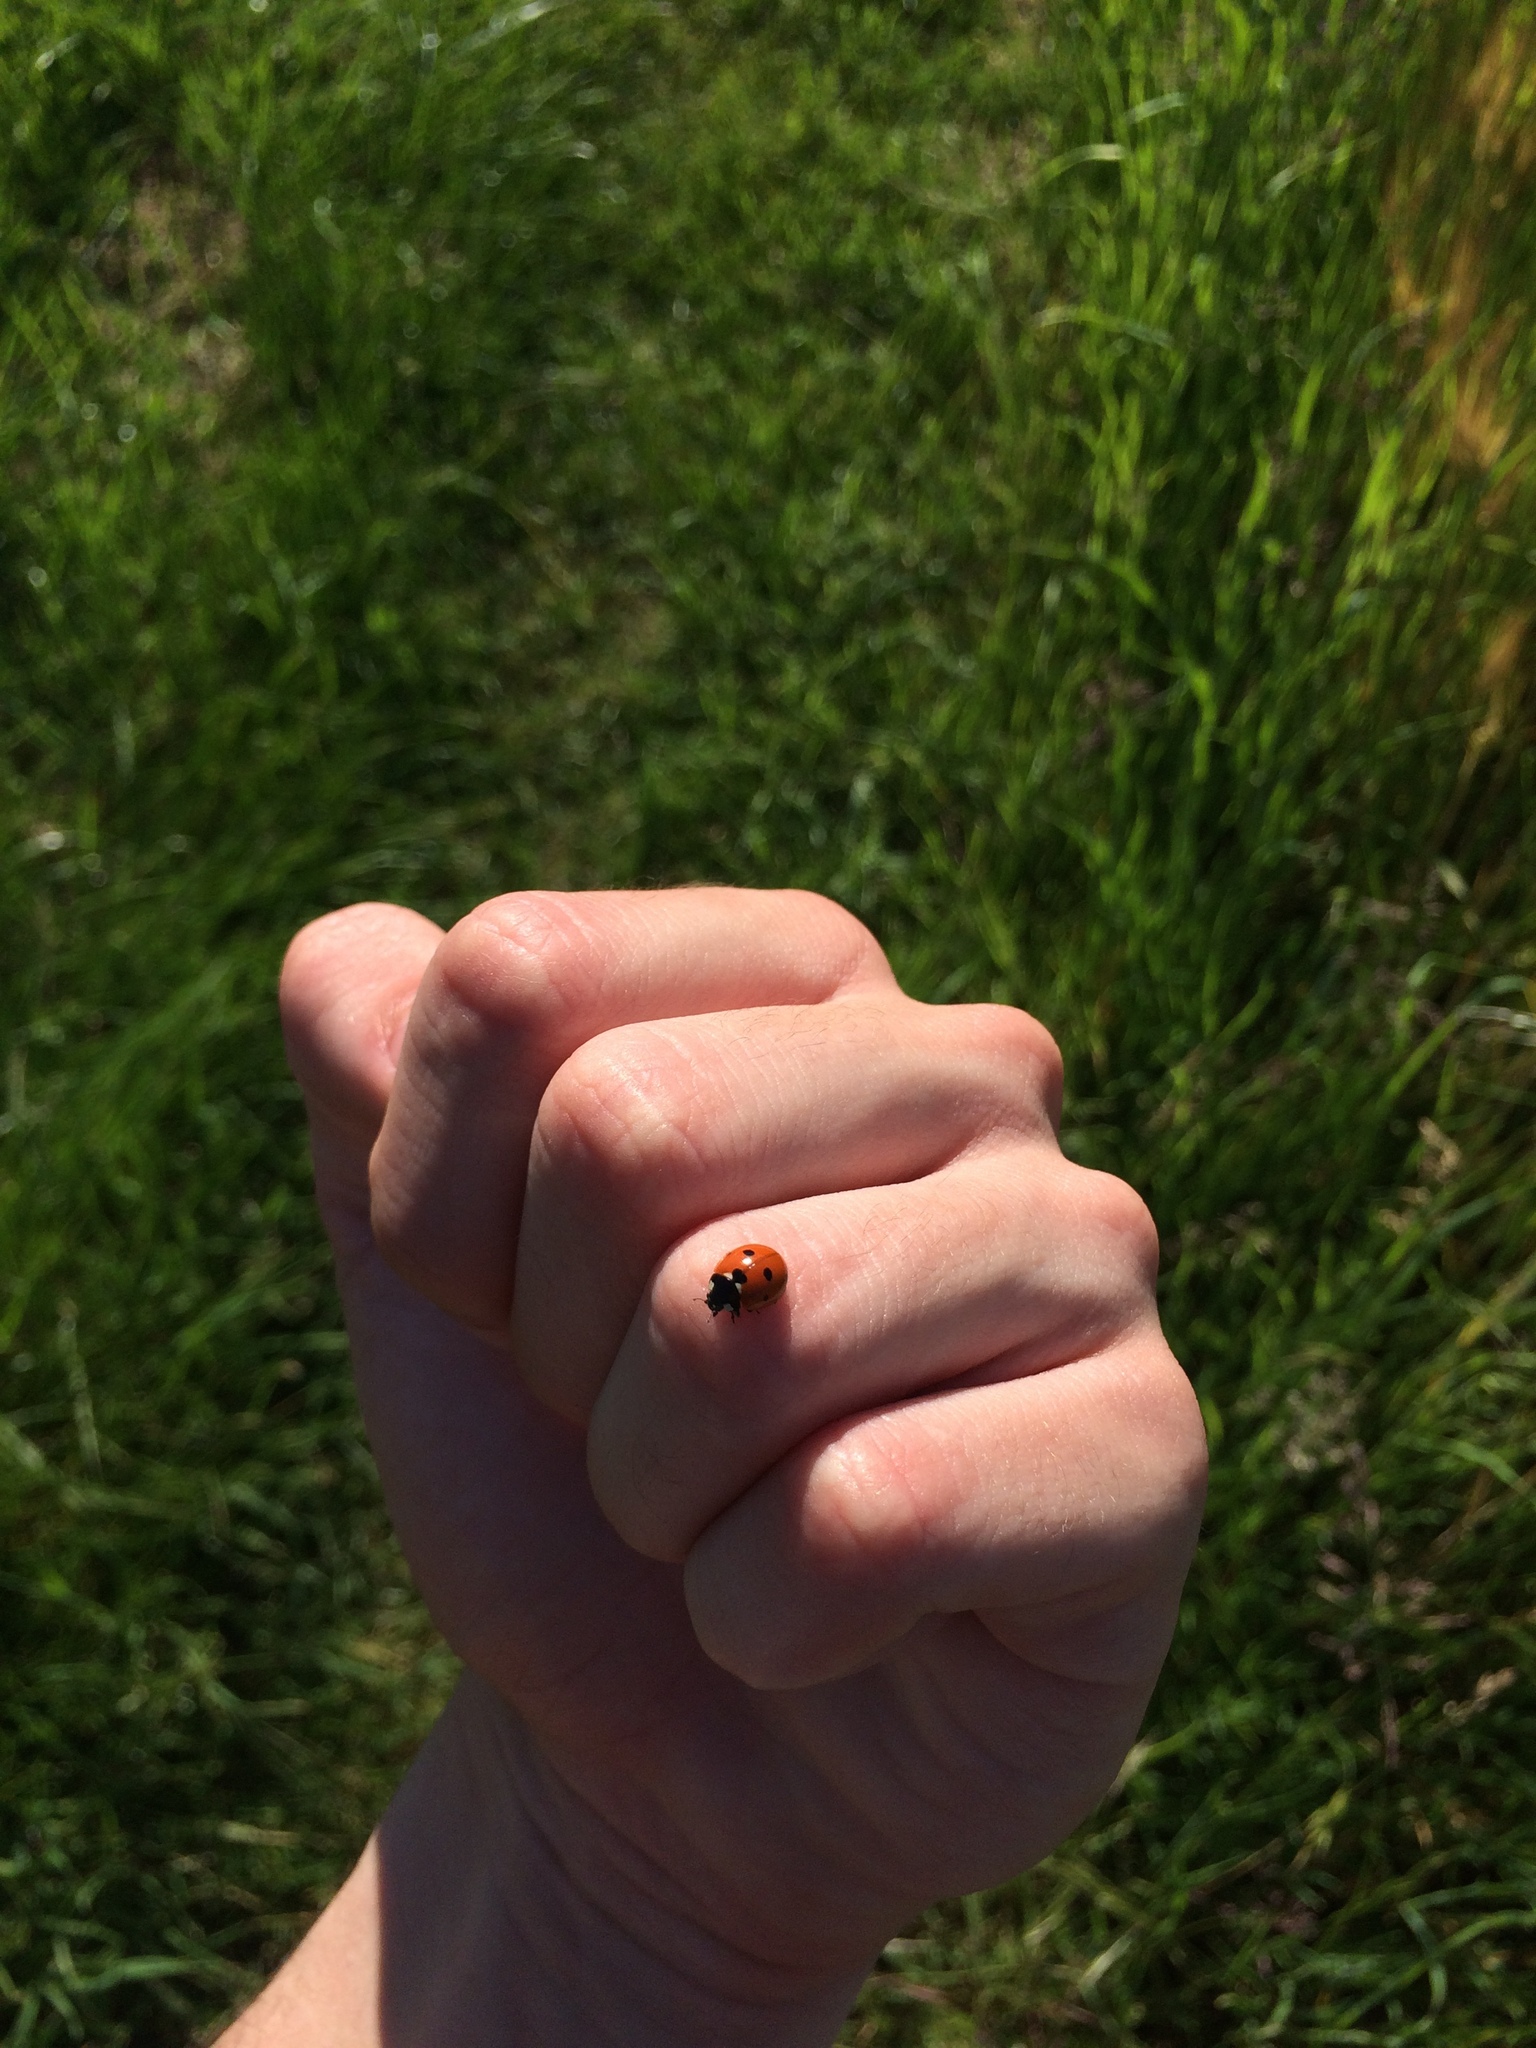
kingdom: Animalia
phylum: Arthropoda
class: Insecta
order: Coleoptera
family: Coccinellidae
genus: Coccinella
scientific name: Coccinella septempunctata
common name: Sevenspotted lady beetle
